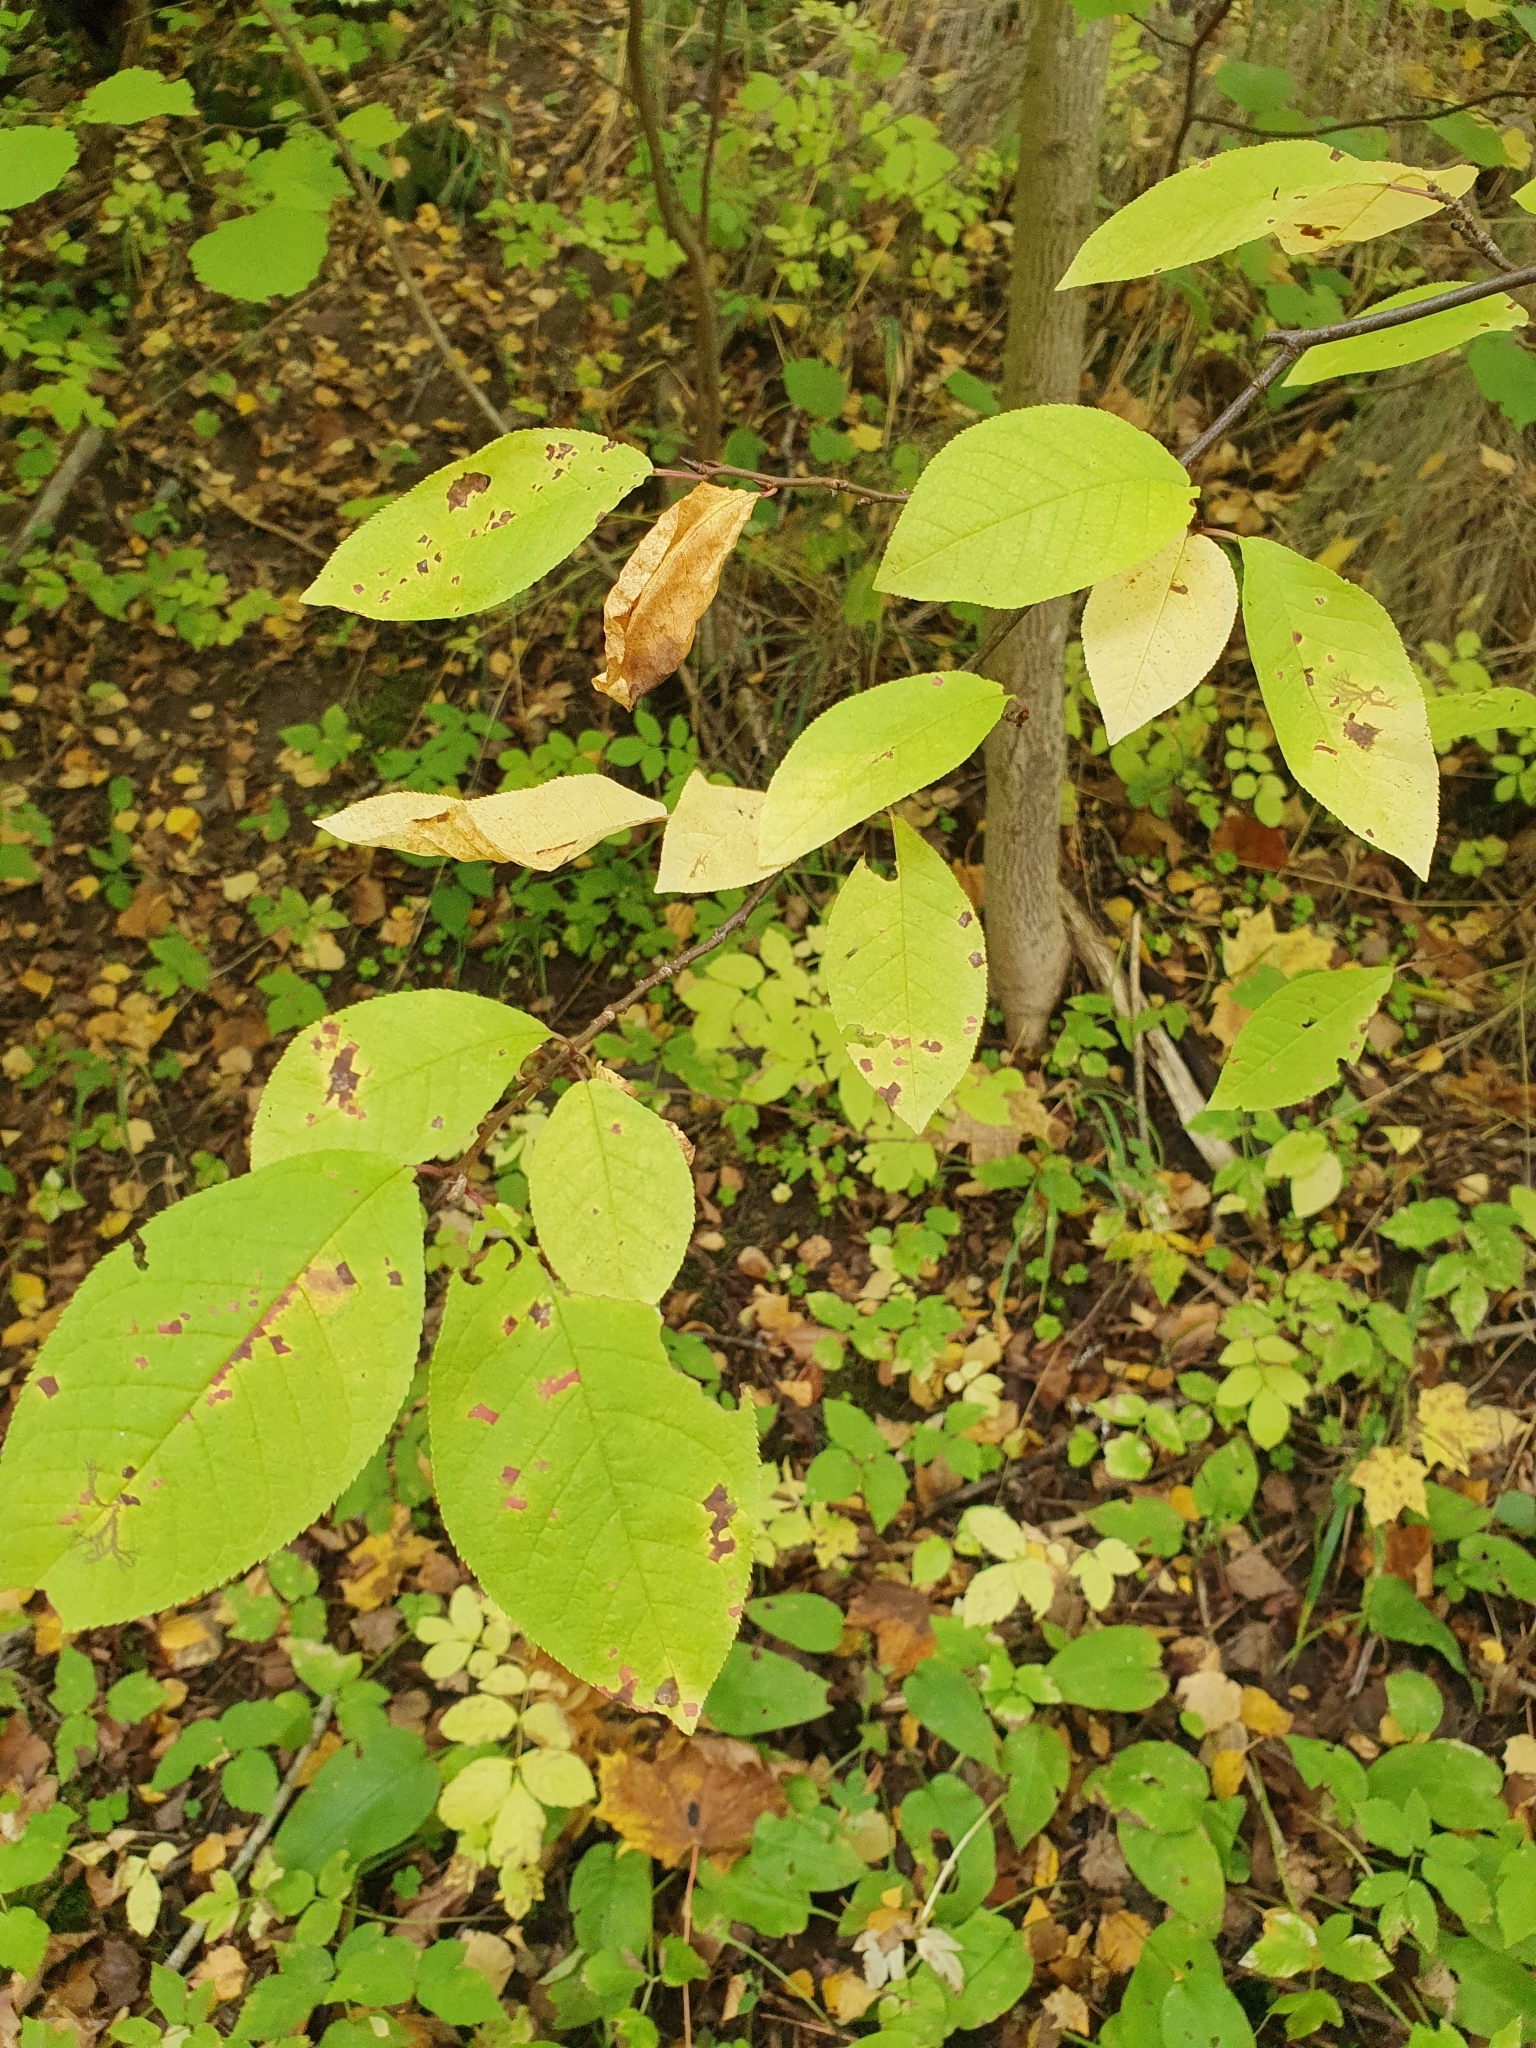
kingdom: Plantae
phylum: Tracheophyta
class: Magnoliopsida
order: Rosales
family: Rosaceae
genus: Prunus
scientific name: Prunus padus
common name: Bird cherry
